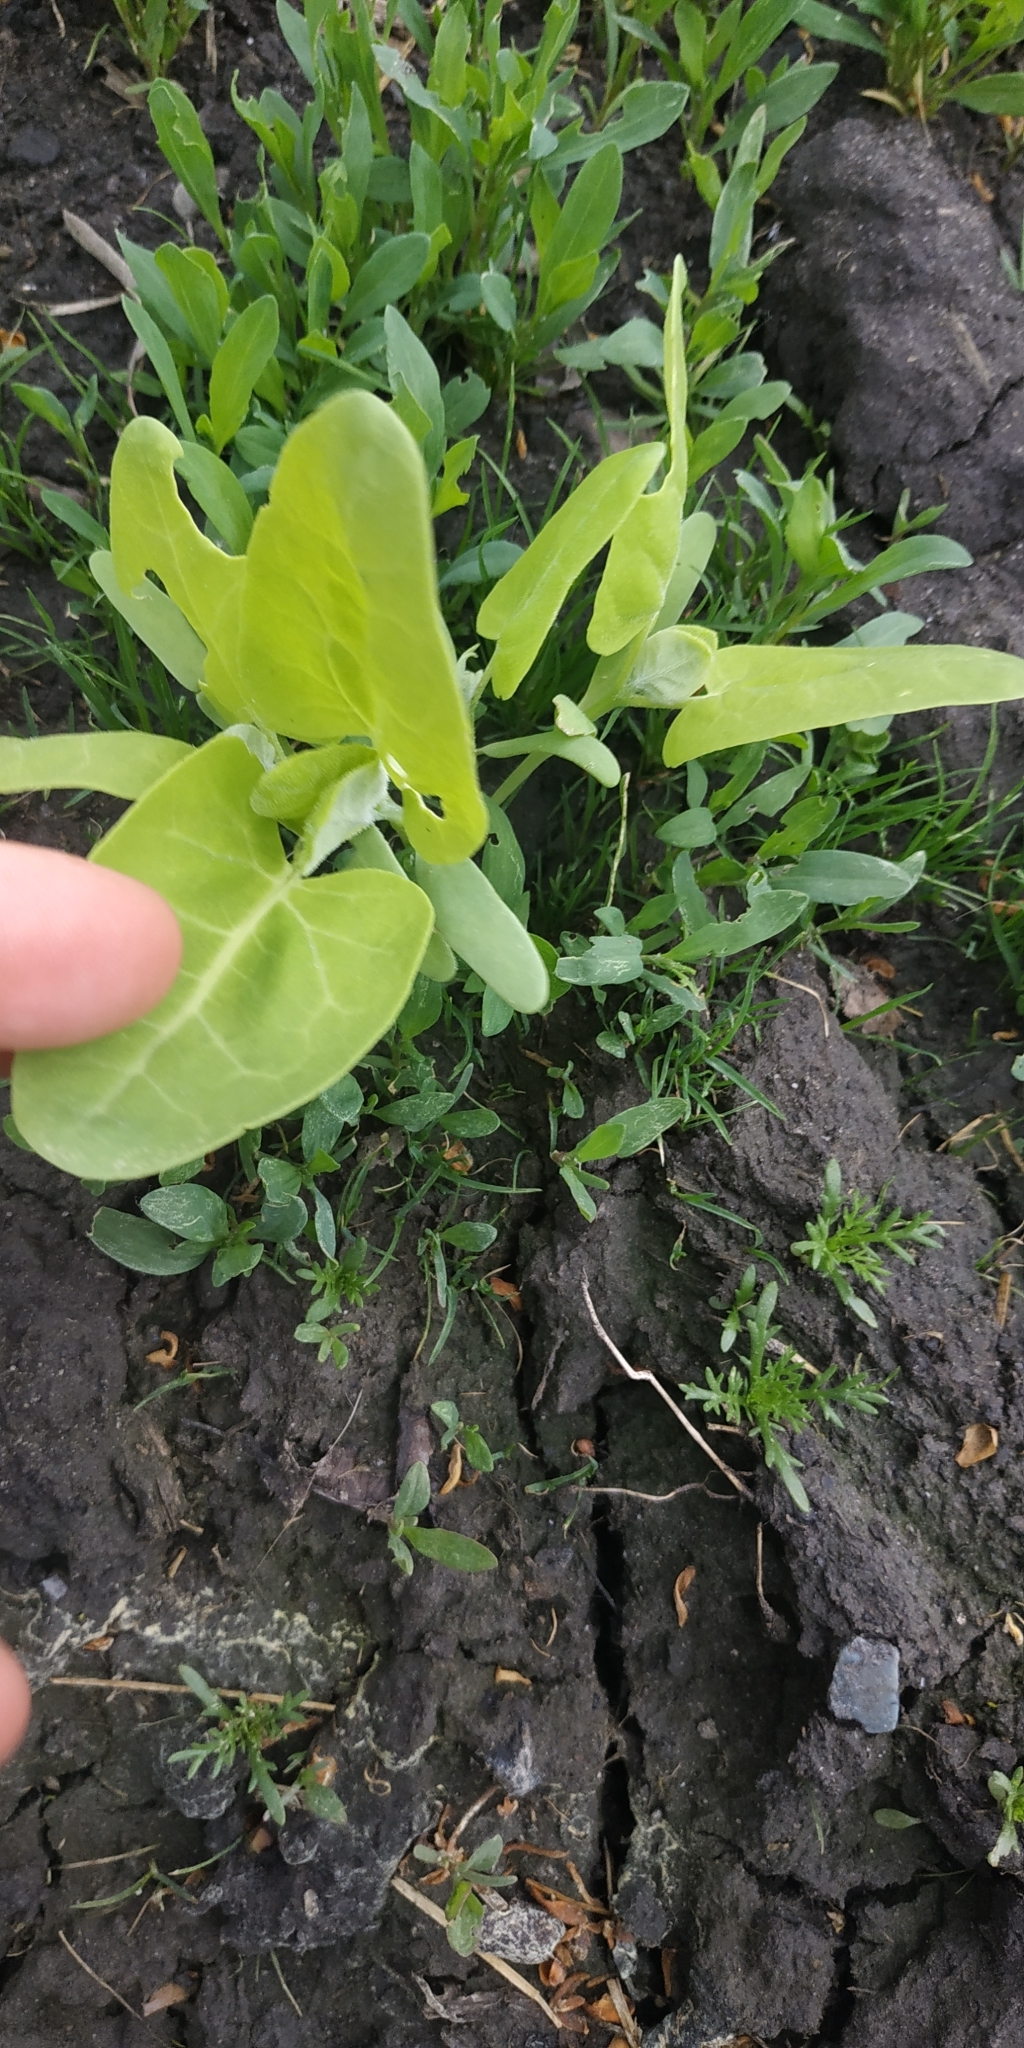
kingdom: Plantae
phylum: Tracheophyta
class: Magnoliopsida
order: Caryophyllales
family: Amaranthaceae
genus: Atriplex
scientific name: Atriplex sagittata
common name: Purple orache
